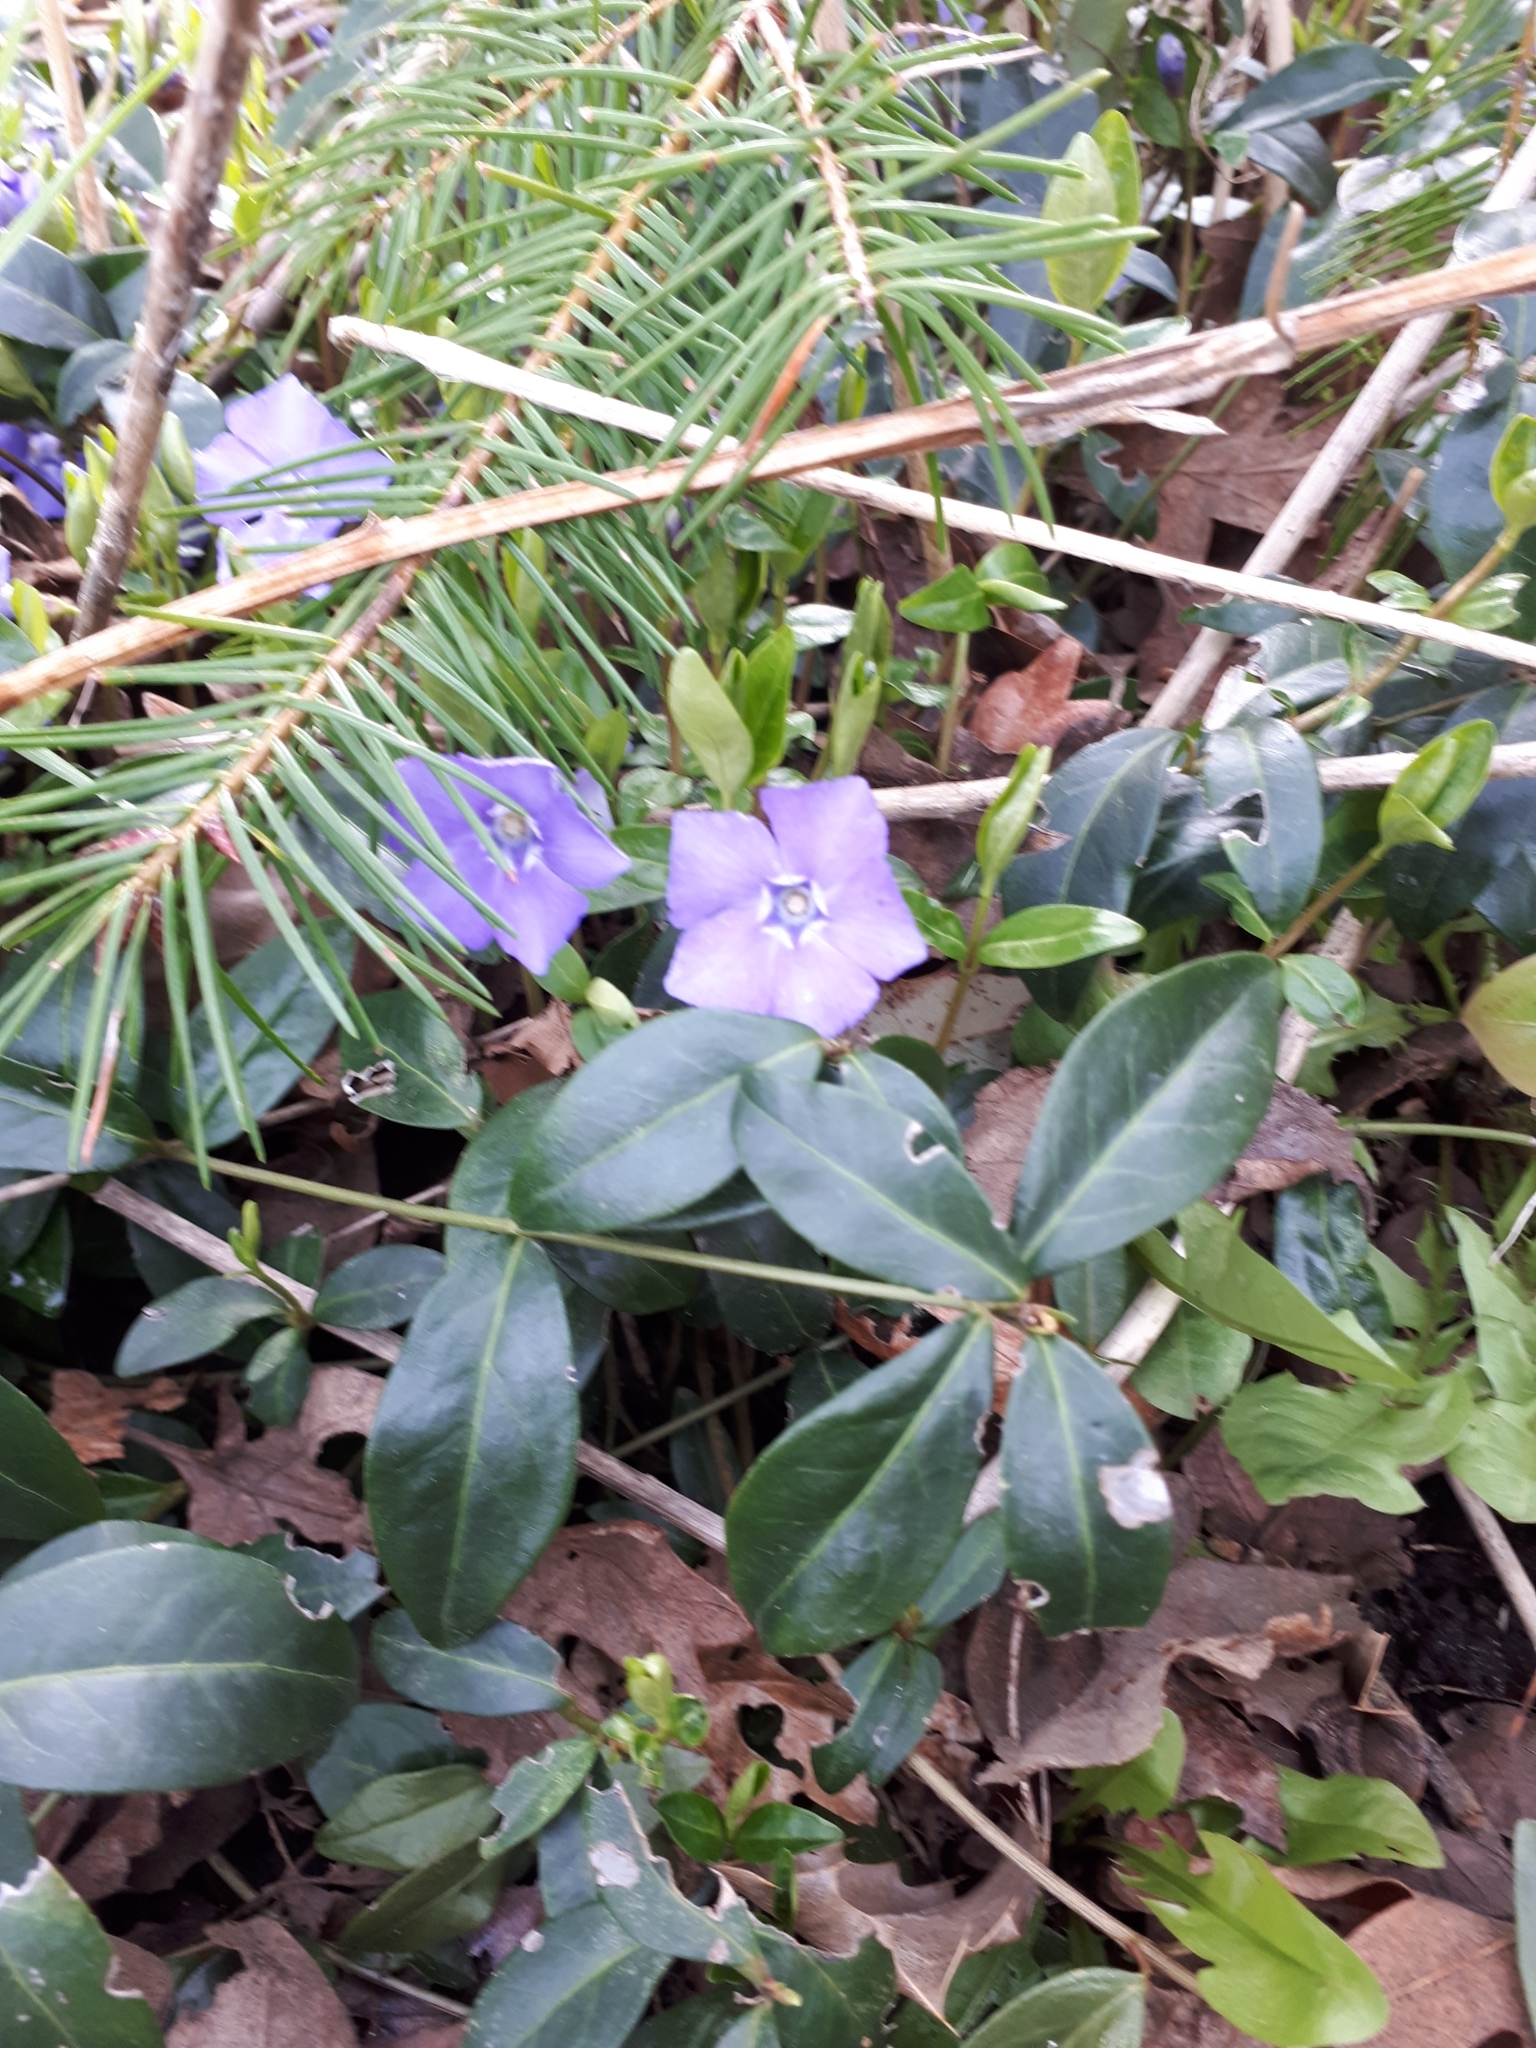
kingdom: Plantae
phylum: Tracheophyta
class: Magnoliopsida
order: Gentianales
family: Apocynaceae
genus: Vinca
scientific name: Vinca minor
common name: Lesser periwinkle
